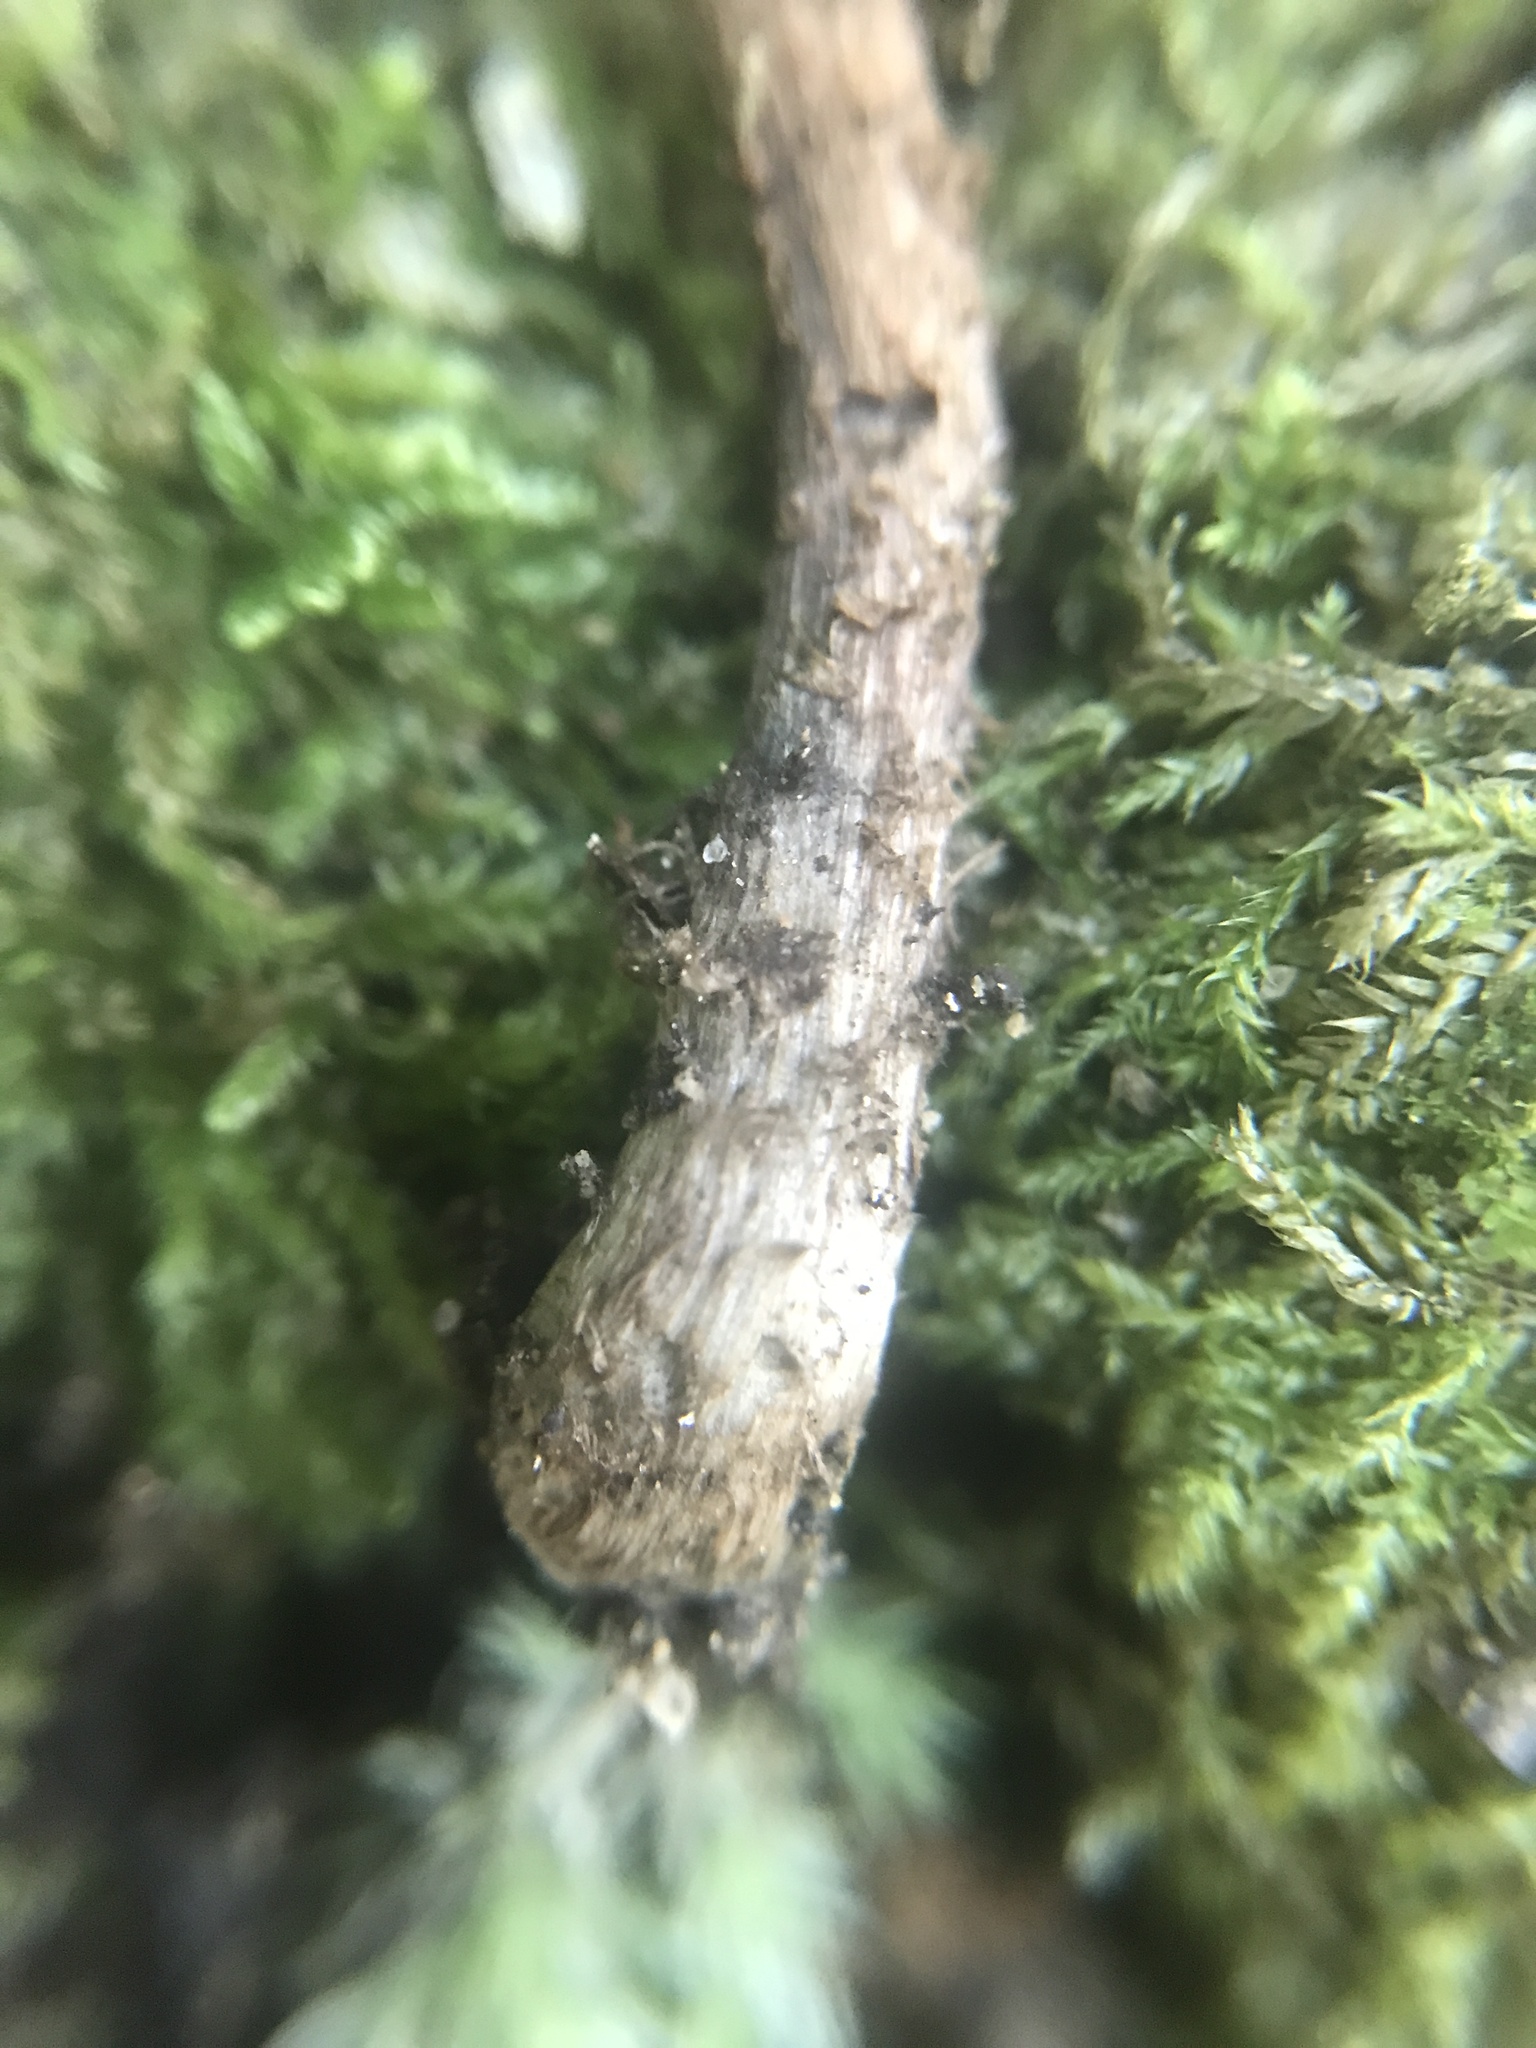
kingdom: Fungi
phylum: Basidiomycota
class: Agaricomycetes
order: Agaricales
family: Inocybaceae
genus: Inosperma
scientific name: Inosperma calamistratum
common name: Greenfoot fibrecap
